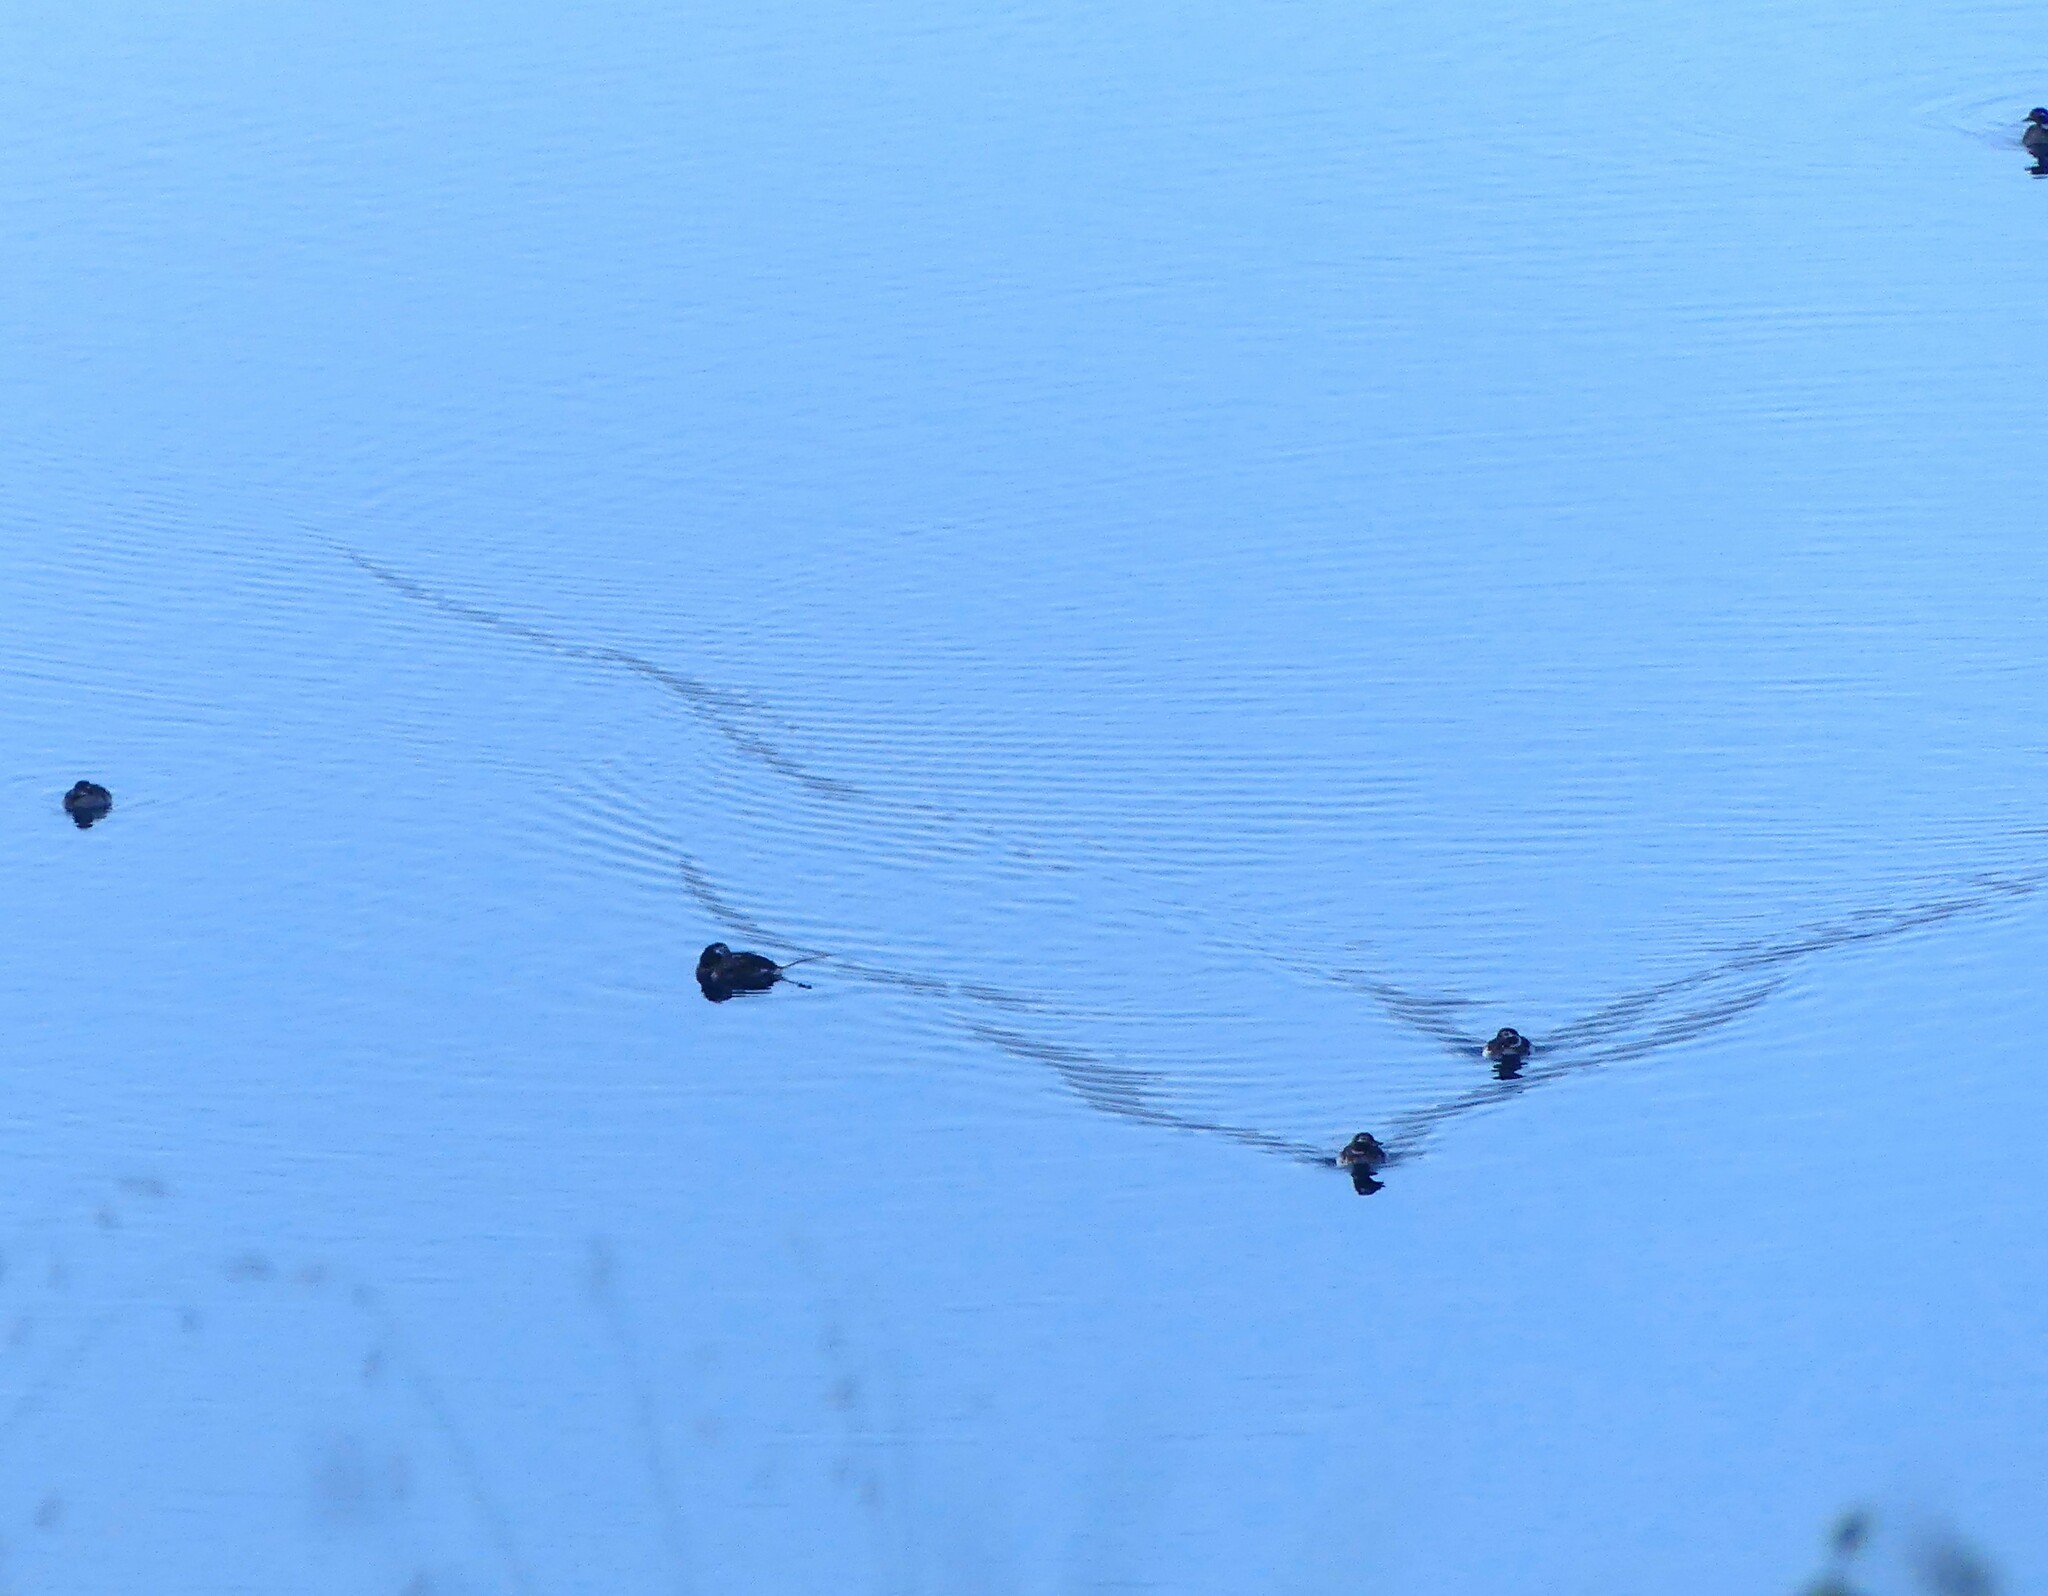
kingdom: Animalia
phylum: Chordata
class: Aves
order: Anseriformes
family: Anatidae
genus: Clangula
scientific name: Clangula hyemalis
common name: Long-tailed duck
